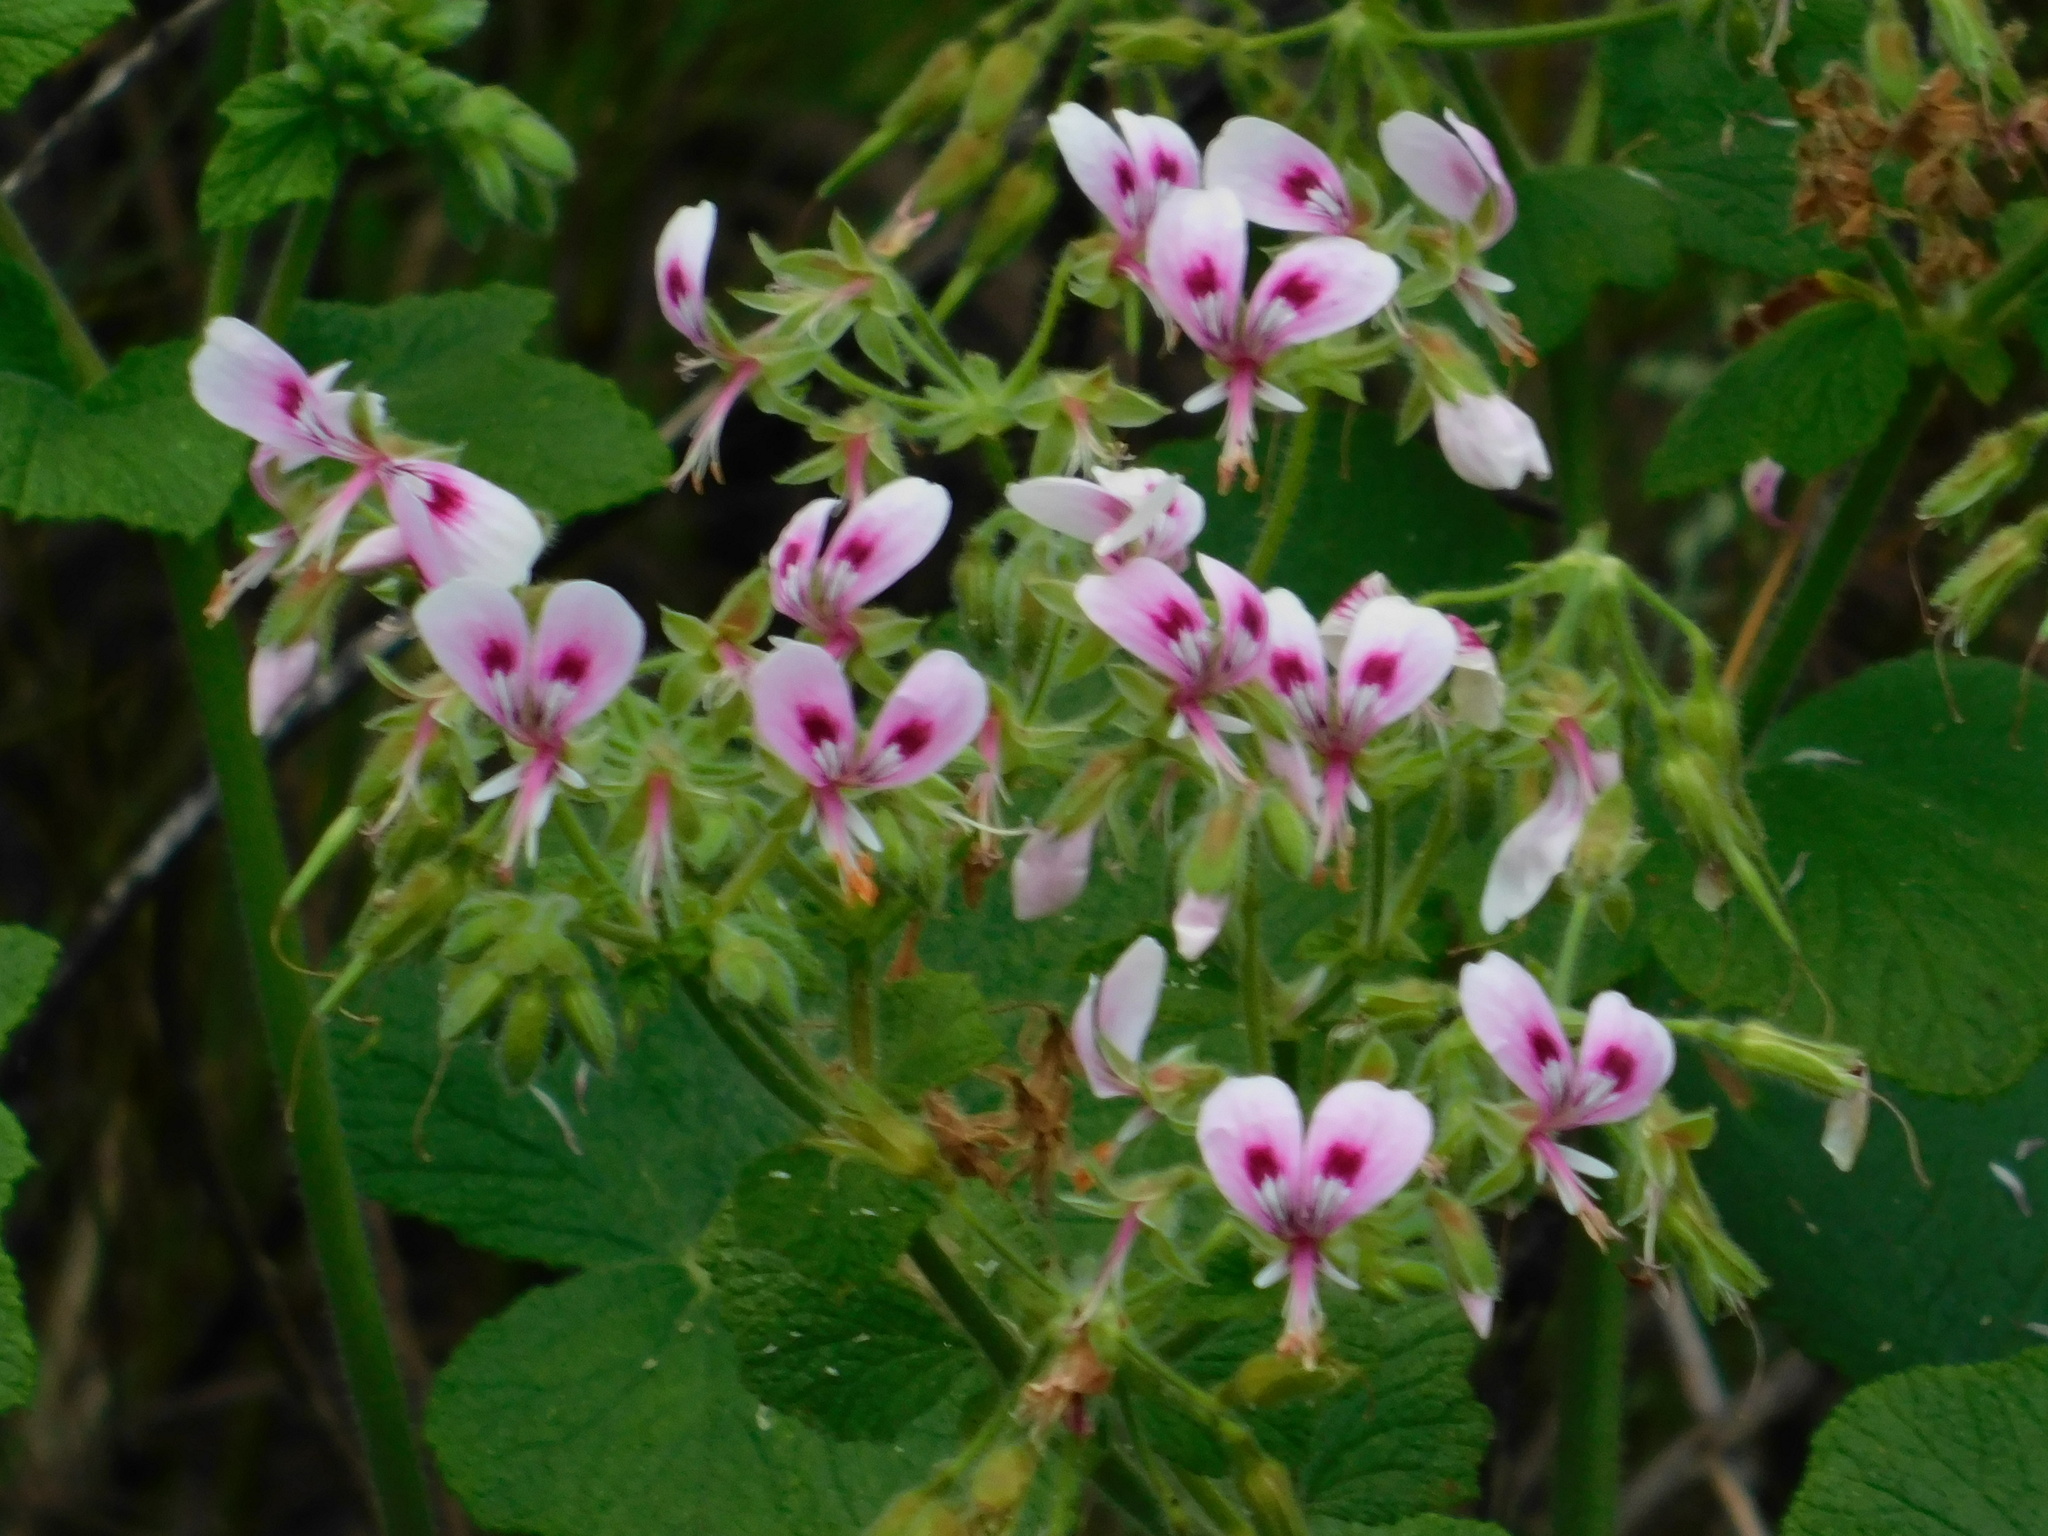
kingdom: Plantae
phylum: Tracheophyta
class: Magnoliopsida
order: Geraniales
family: Geraniaceae
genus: Pelargonium
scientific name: Pelargonium papilionaceum
